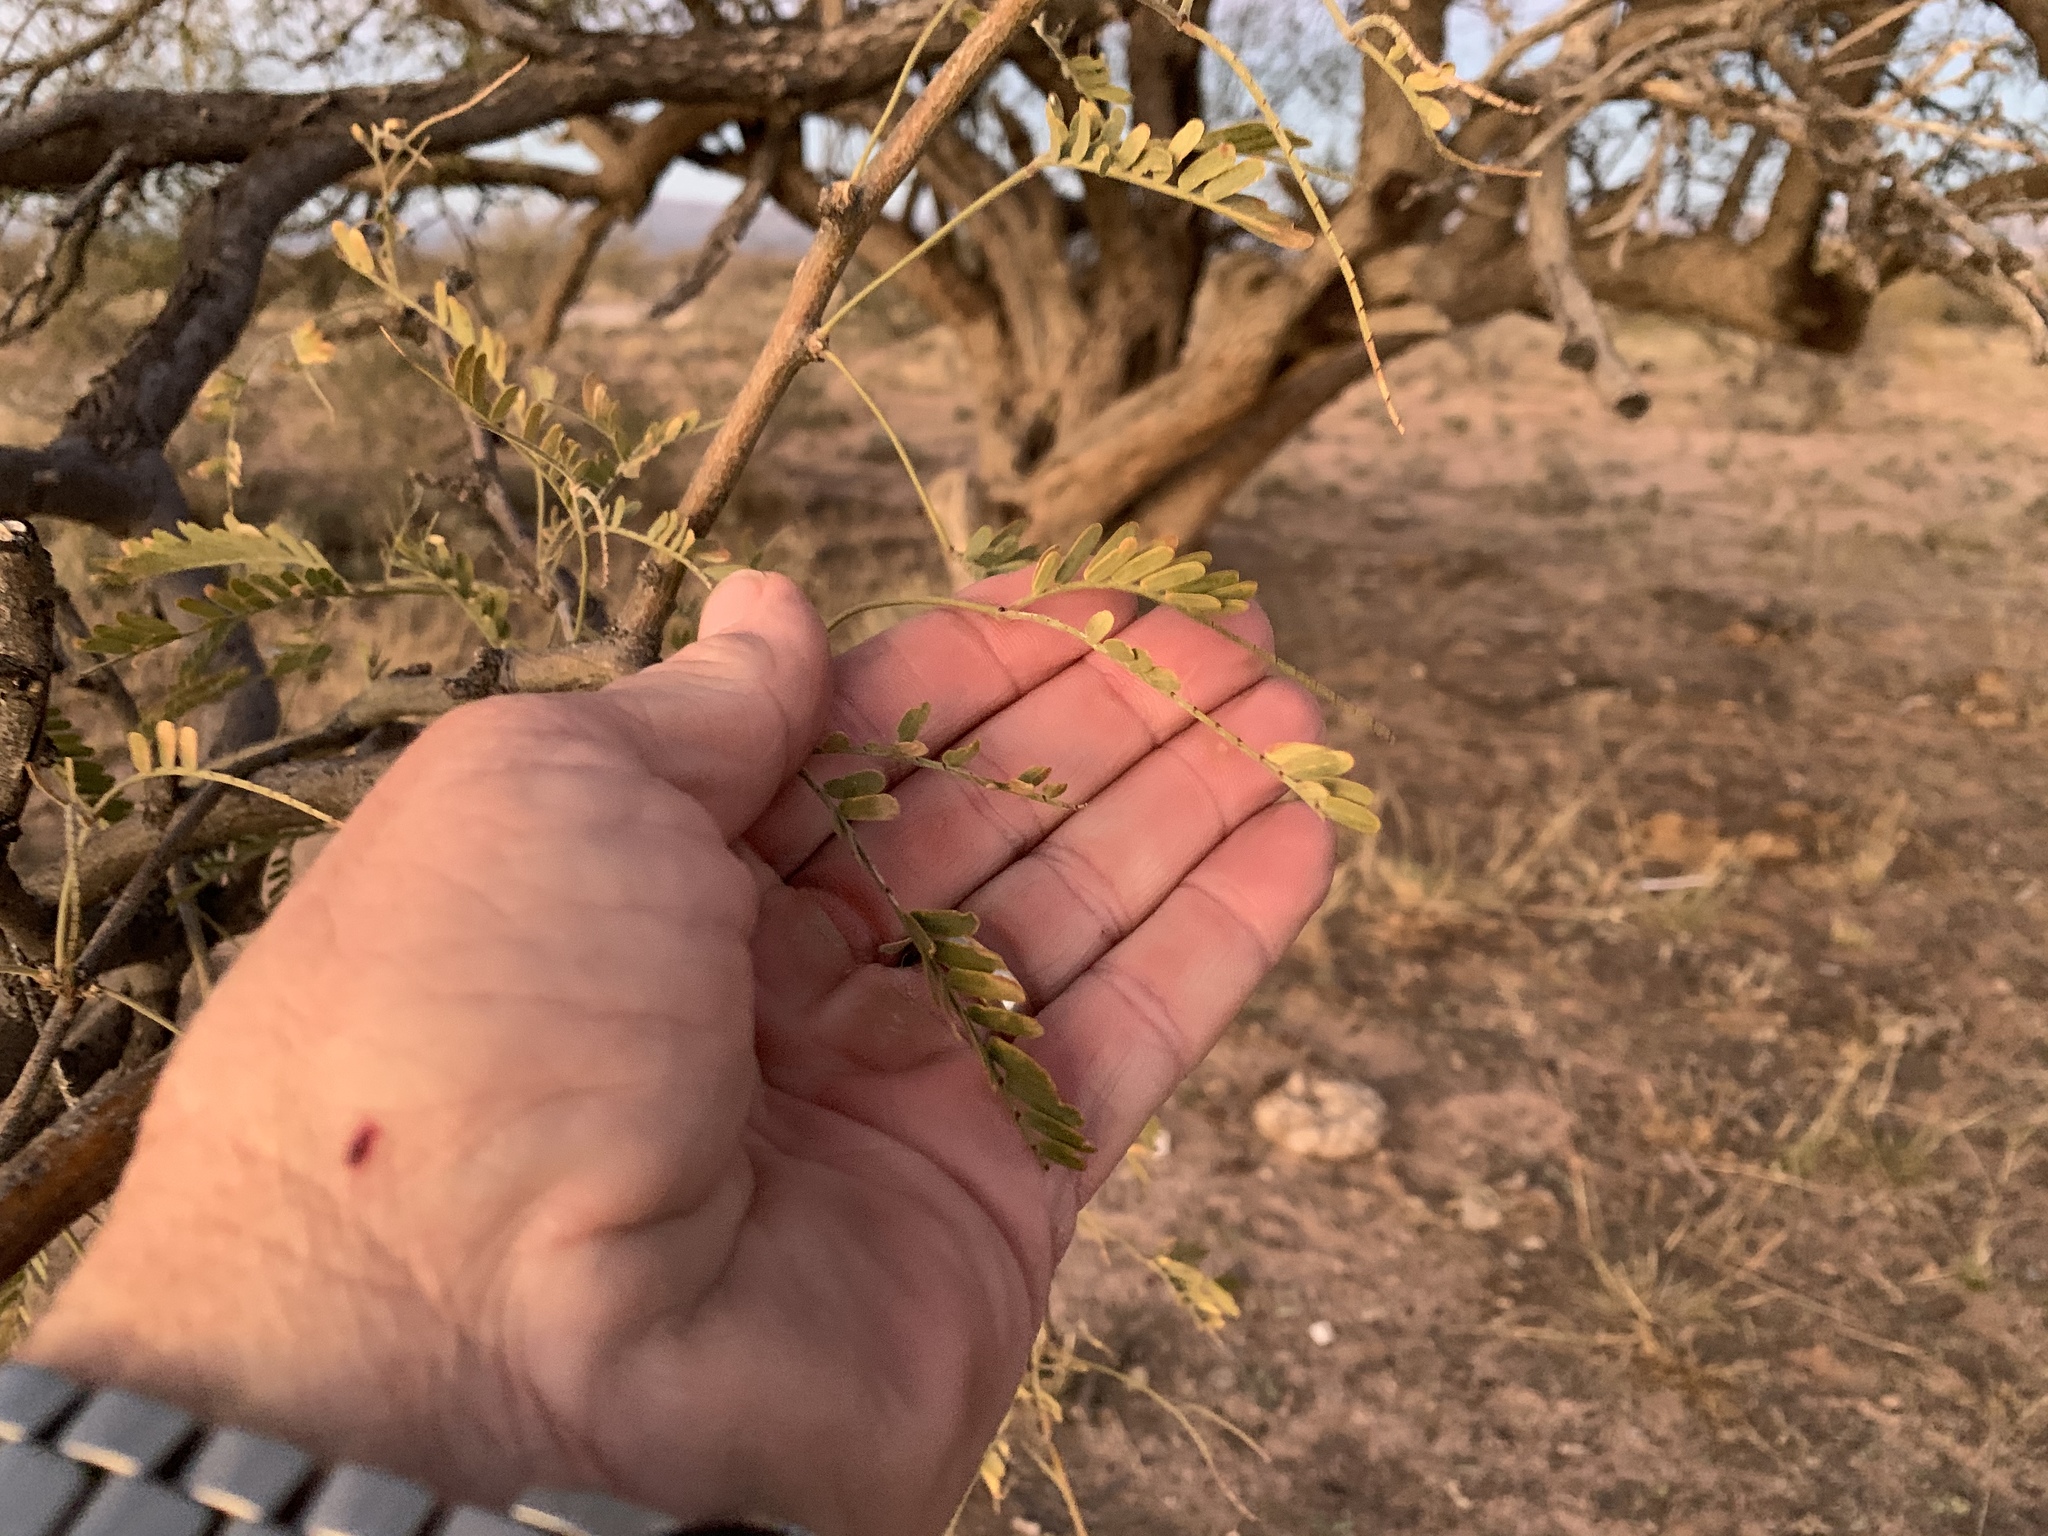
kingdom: Plantae
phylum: Tracheophyta
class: Magnoliopsida
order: Fabales
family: Fabaceae
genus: Prosopis
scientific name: Prosopis velutina
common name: Velvet mesquite
